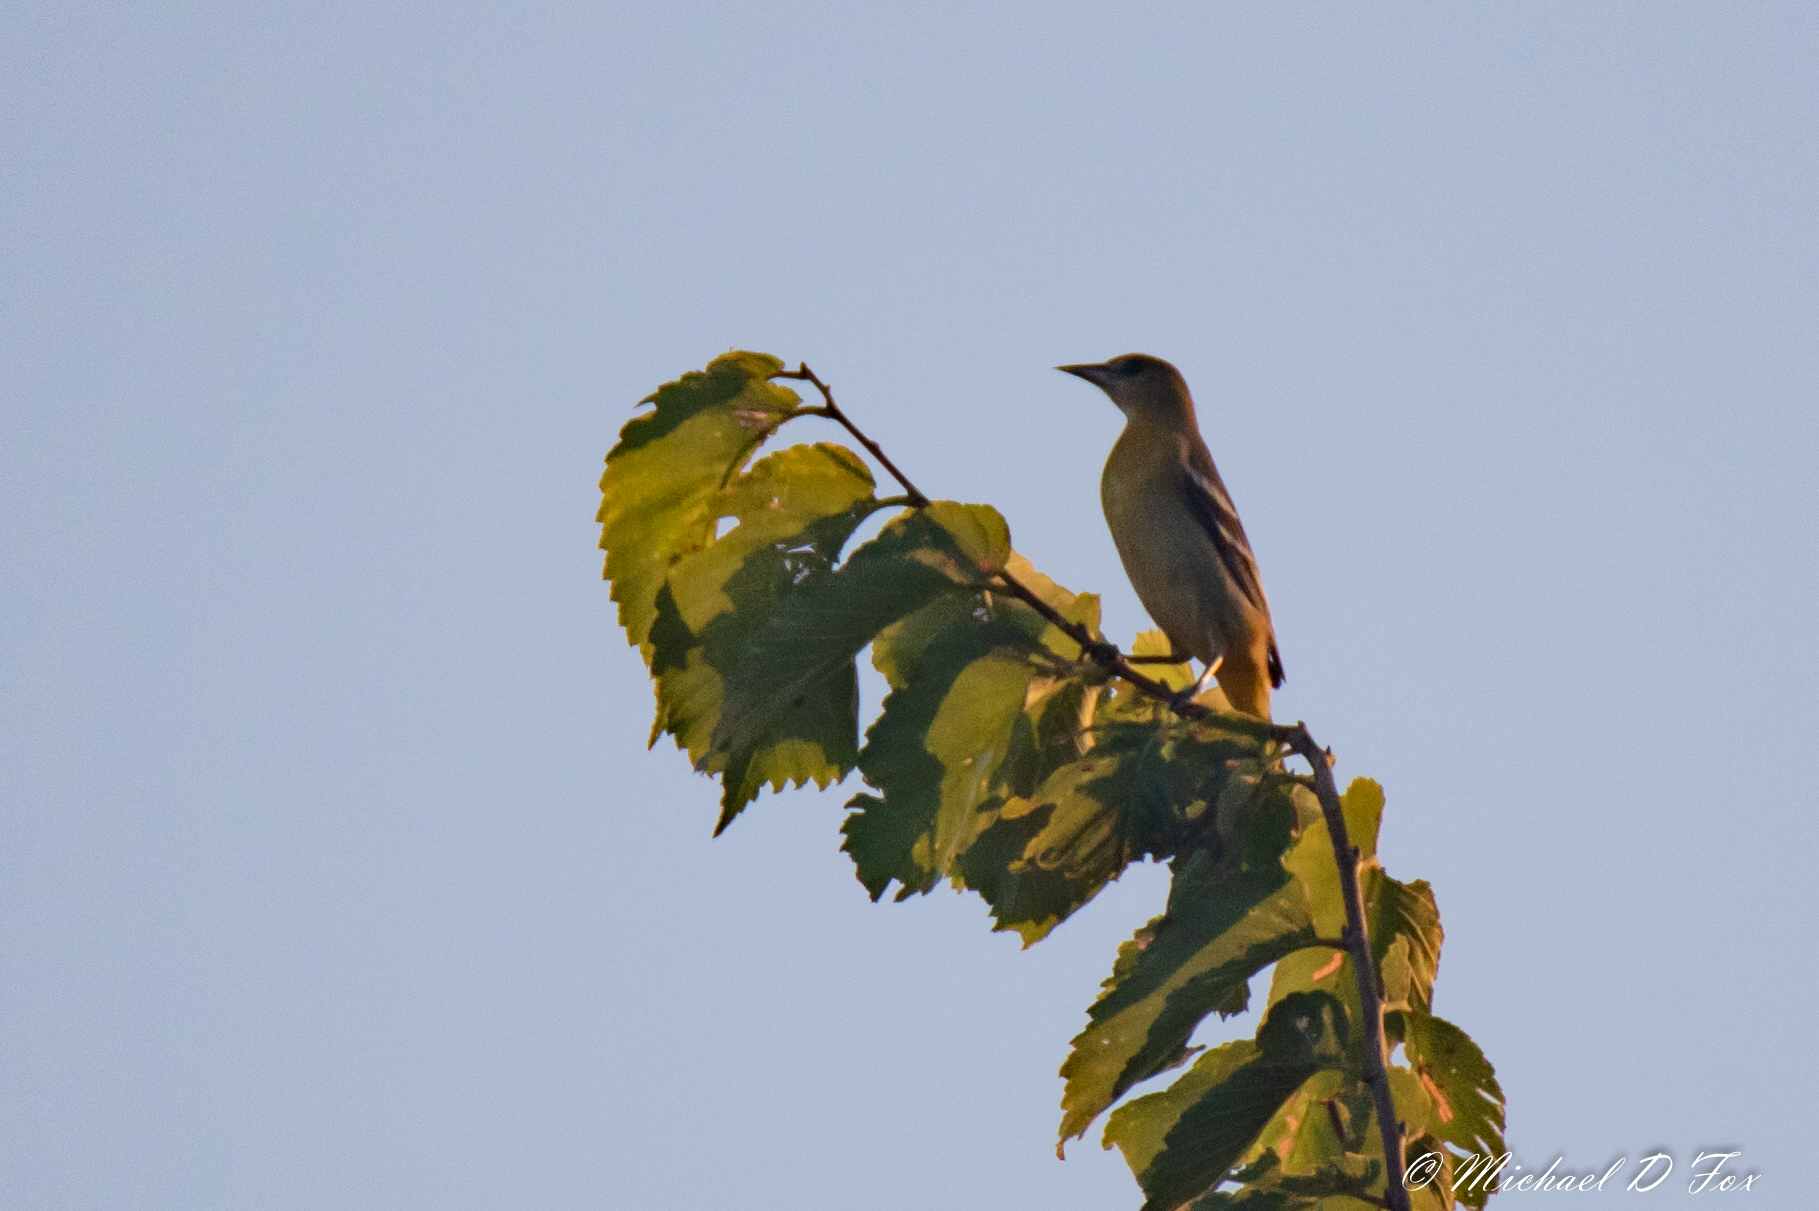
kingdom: Animalia
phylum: Chordata
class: Aves
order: Passeriformes
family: Icteridae
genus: Icterus
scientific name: Icterus galbula
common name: Baltimore oriole
